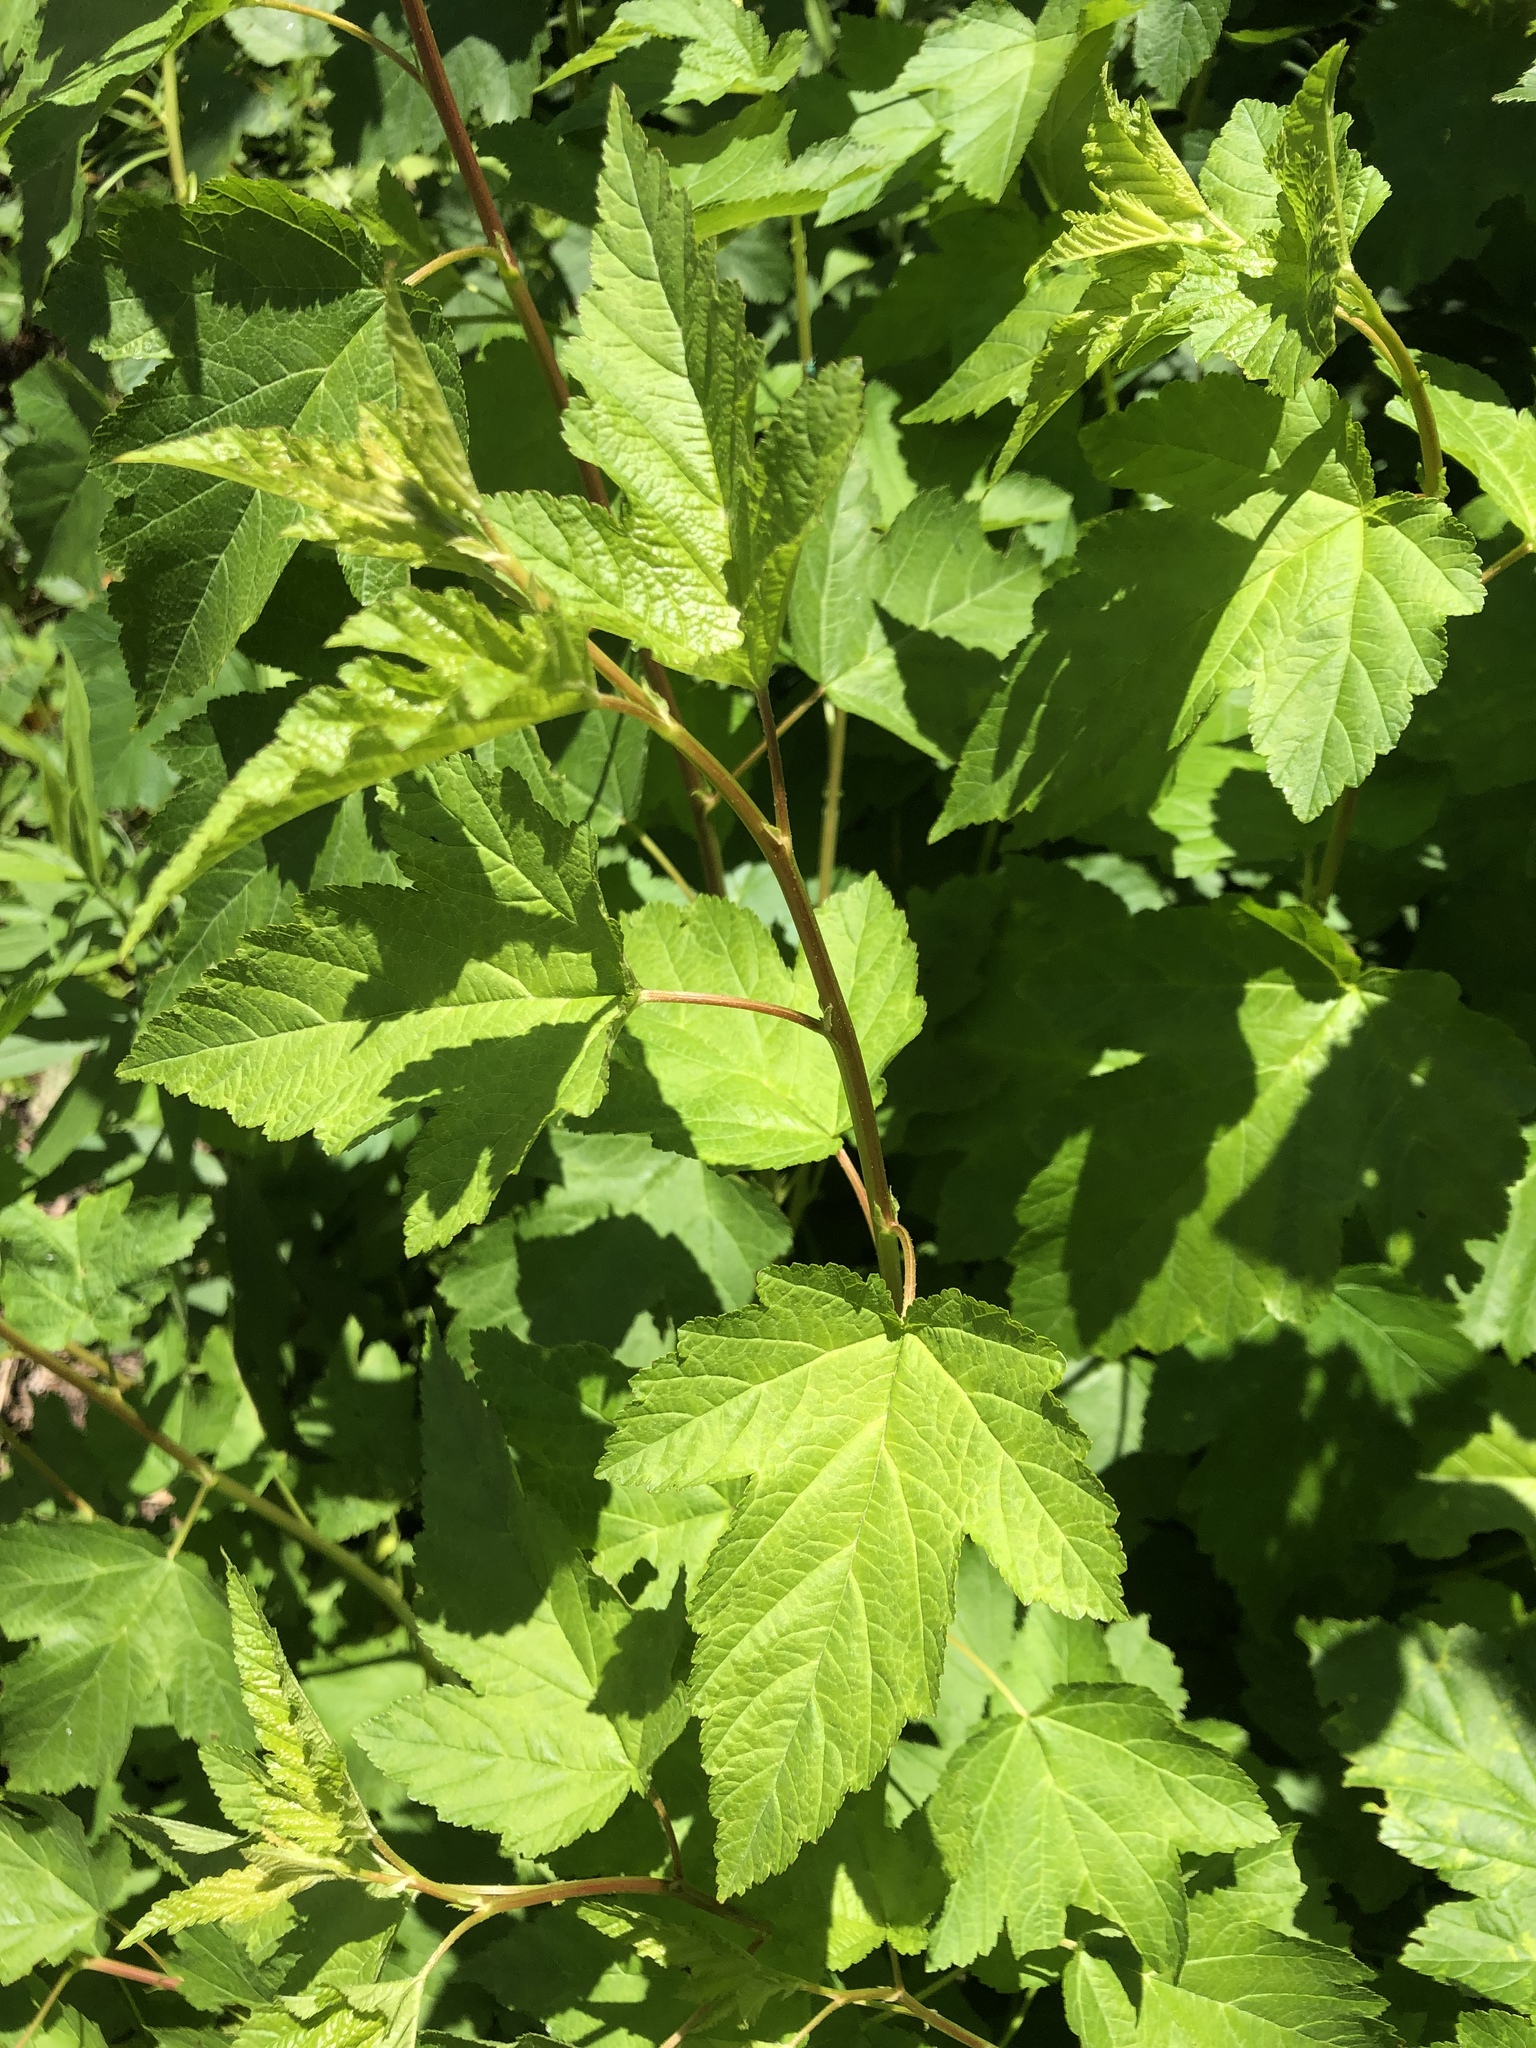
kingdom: Plantae
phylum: Tracheophyta
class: Magnoliopsida
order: Rosales
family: Rosaceae
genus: Physocarpus
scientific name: Physocarpus opulifolius
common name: Ninebark
